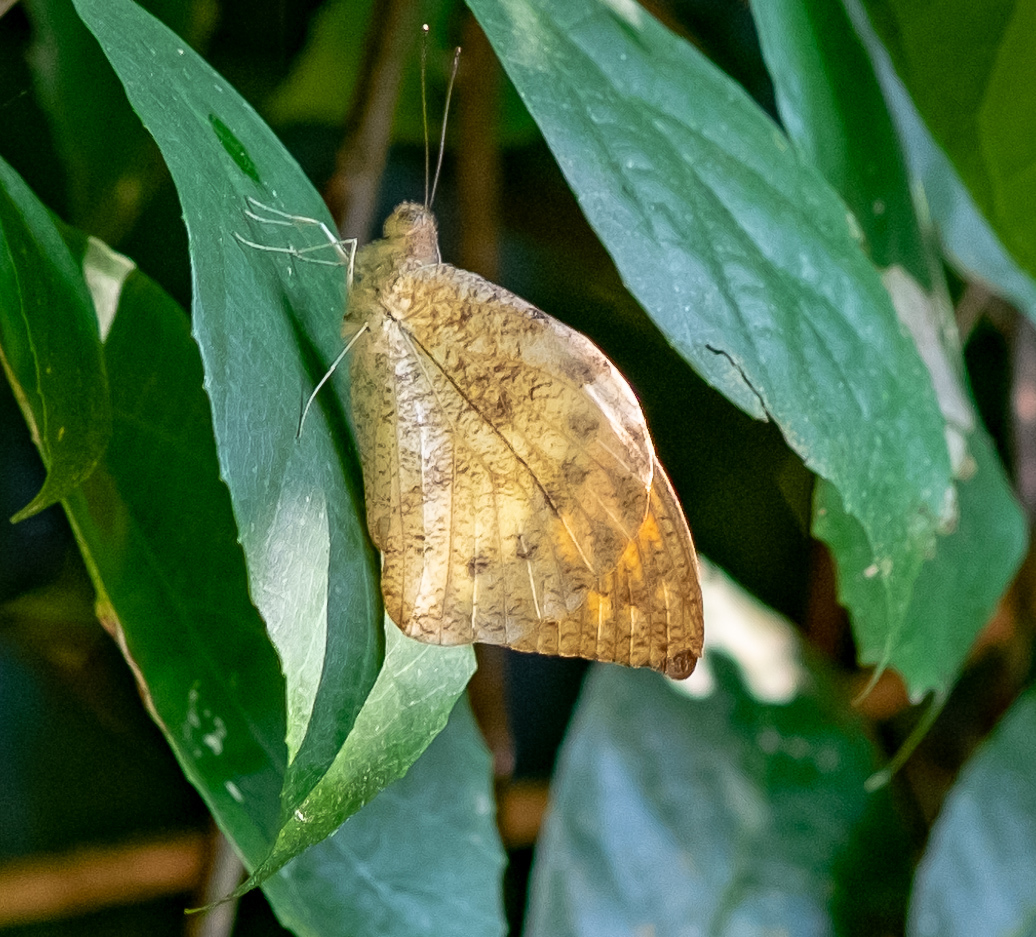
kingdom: Animalia
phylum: Arthropoda
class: Insecta
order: Lepidoptera
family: Pieridae
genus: Hebomoia
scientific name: Hebomoia glaucippe
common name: Great orange tip
